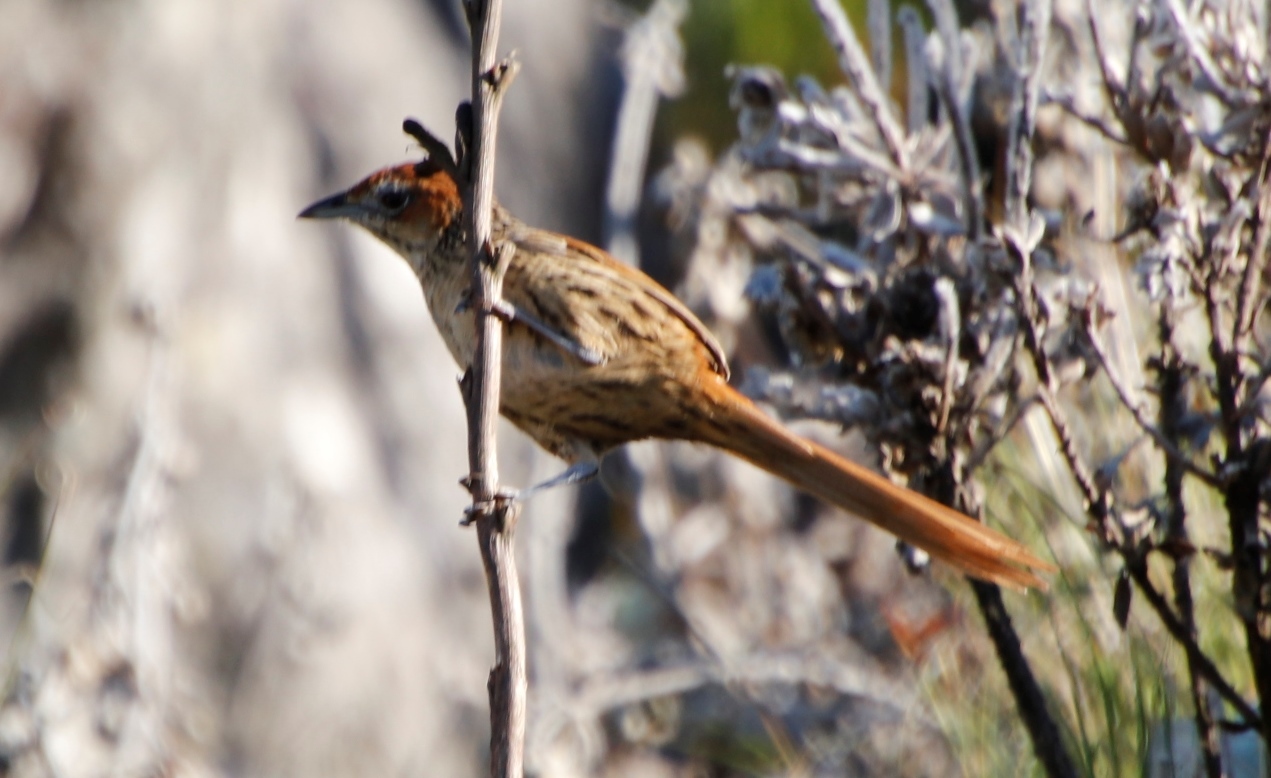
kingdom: Animalia
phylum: Chordata
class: Aves
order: Passeriformes
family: Macrosphenidae
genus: Sphenoeacus
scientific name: Sphenoeacus afer
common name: Cape grassbird
